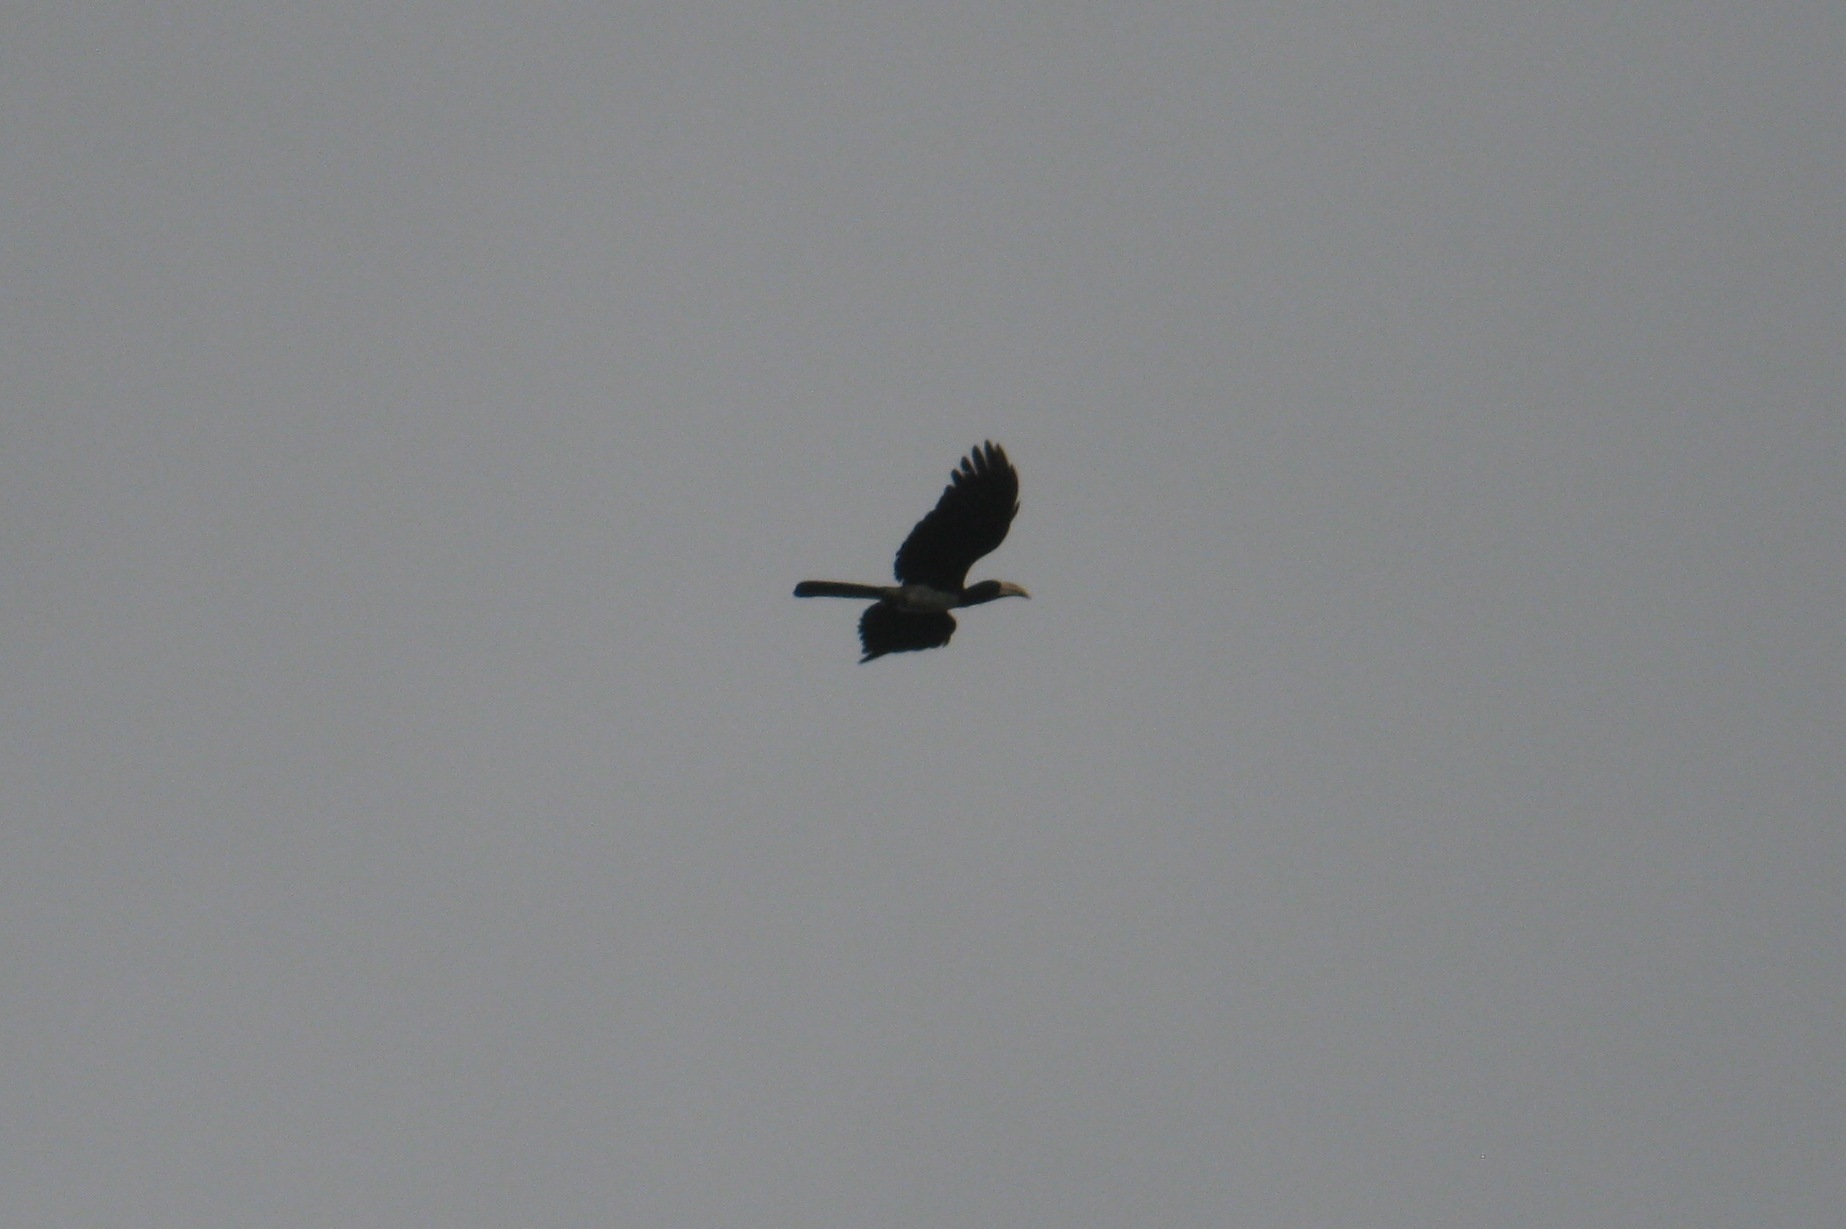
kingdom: Animalia
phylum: Chordata
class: Aves
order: Bucerotiformes
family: Bucerotidae
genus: Lophoceros
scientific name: Lophoceros fasciatus
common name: African pied hornbill
